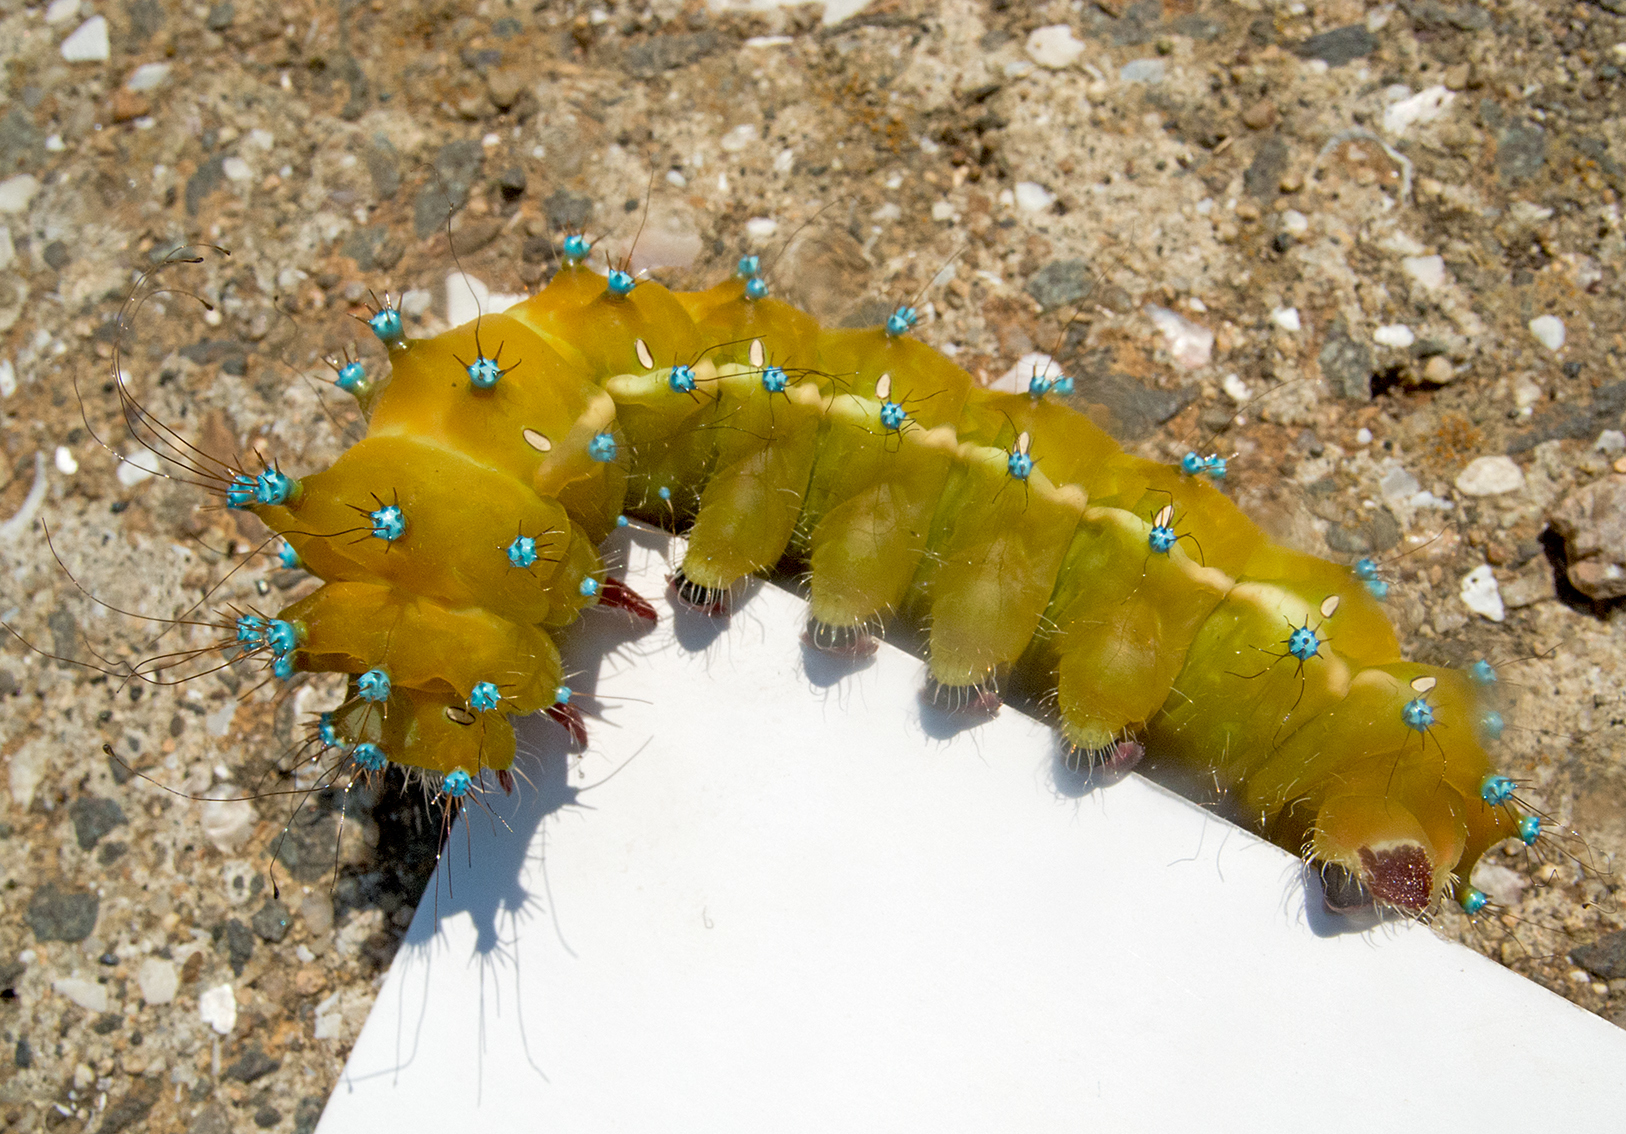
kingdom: Animalia
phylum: Arthropoda
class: Insecta
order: Lepidoptera
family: Saturniidae
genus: Saturnia
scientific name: Saturnia pyri
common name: Great peacock moth
